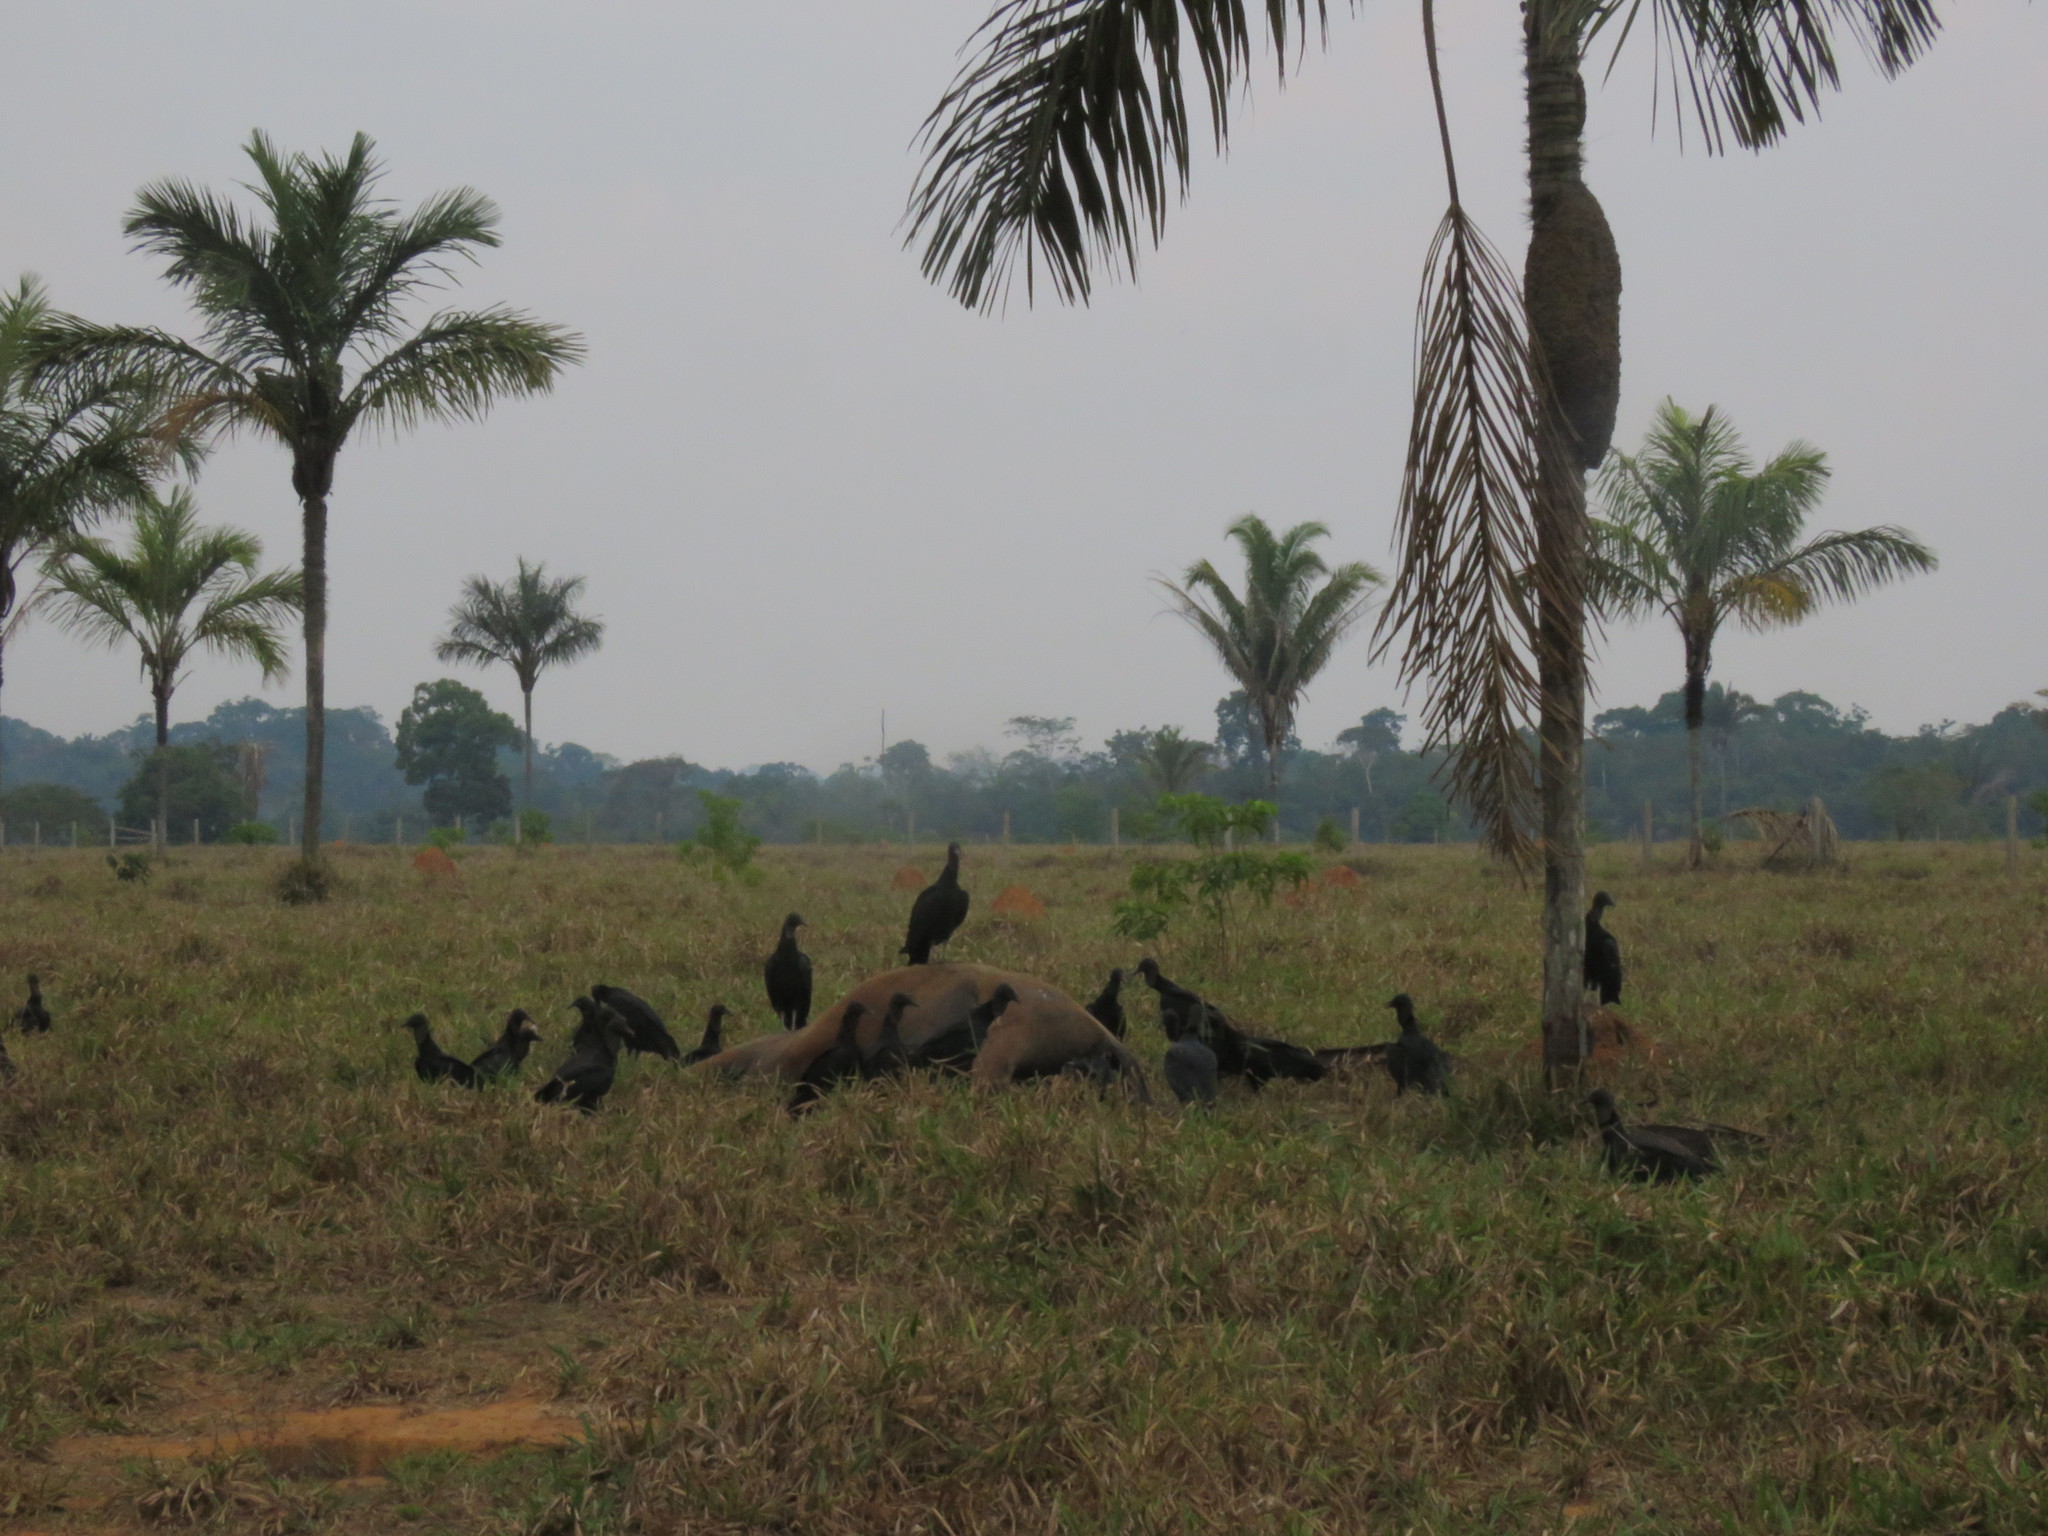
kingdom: Animalia
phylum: Chordata
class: Aves
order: Accipitriformes
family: Cathartidae
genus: Coragyps
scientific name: Coragyps atratus
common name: Black vulture
